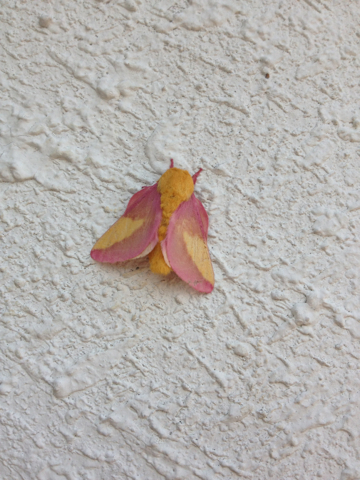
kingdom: Animalia
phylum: Arthropoda
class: Insecta
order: Lepidoptera
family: Saturniidae
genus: Dryocampa
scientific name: Dryocampa rubicunda
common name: Rosy maple moth
